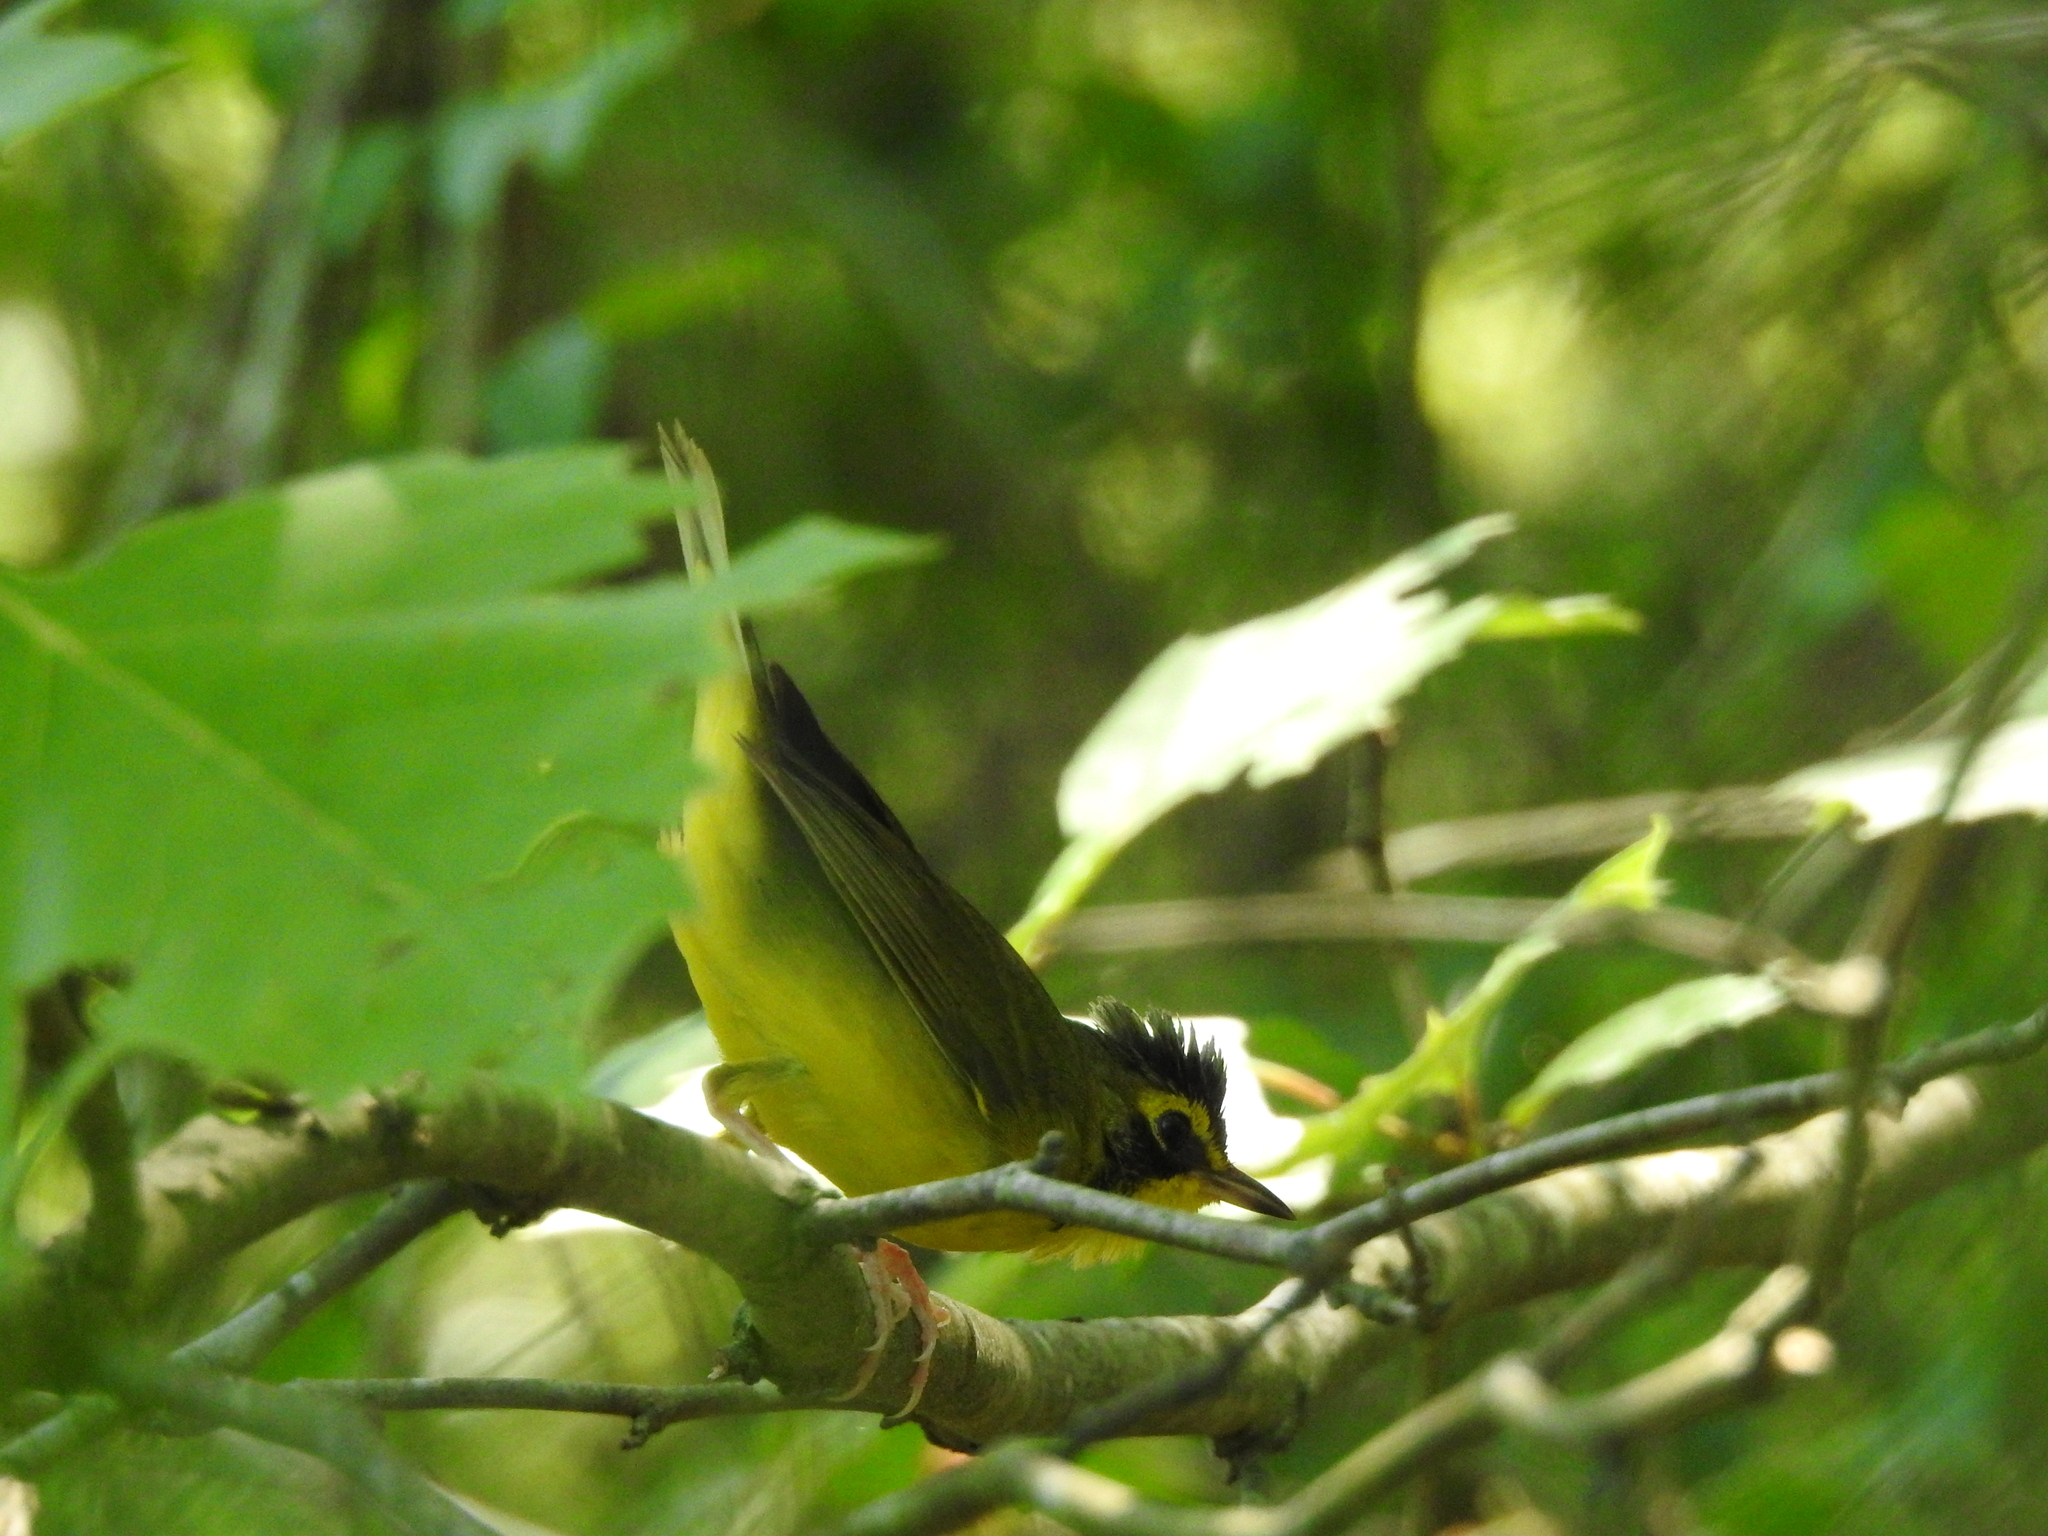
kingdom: Animalia
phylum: Chordata
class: Aves
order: Passeriformes
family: Parulidae
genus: Geothlypis
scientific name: Geothlypis formosa
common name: Kentucky warbler
